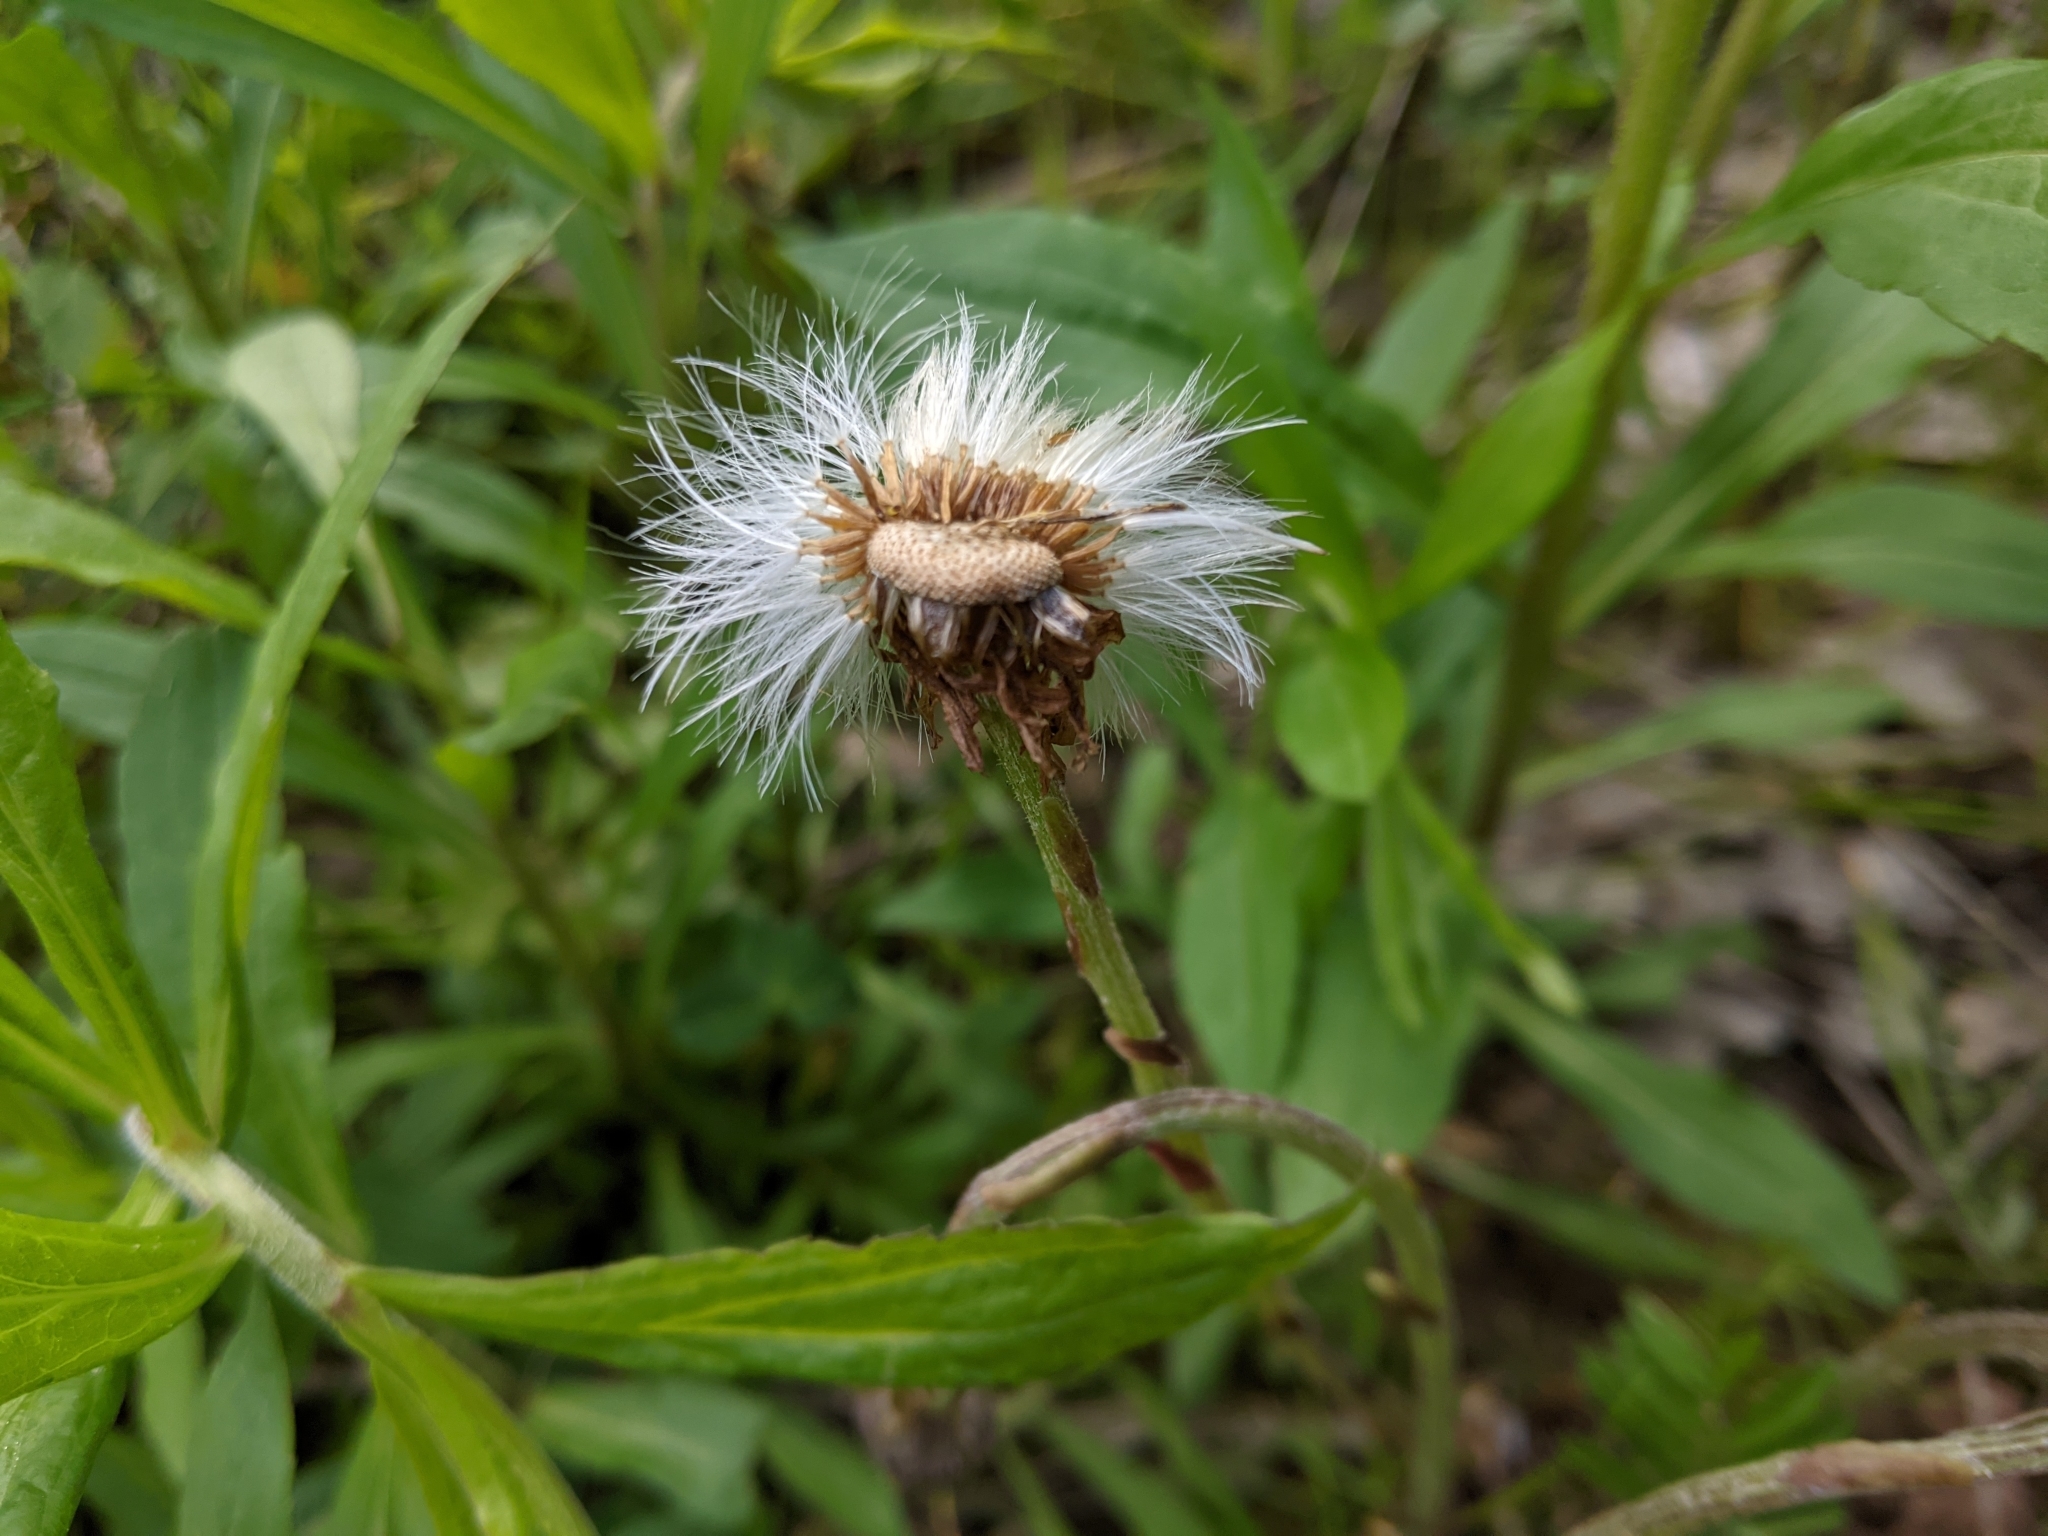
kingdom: Plantae
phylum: Tracheophyta
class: Magnoliopsida
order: Asterales
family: Asteraceae
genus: Tussilago
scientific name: Tussilago farfara
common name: Coltsfoot
